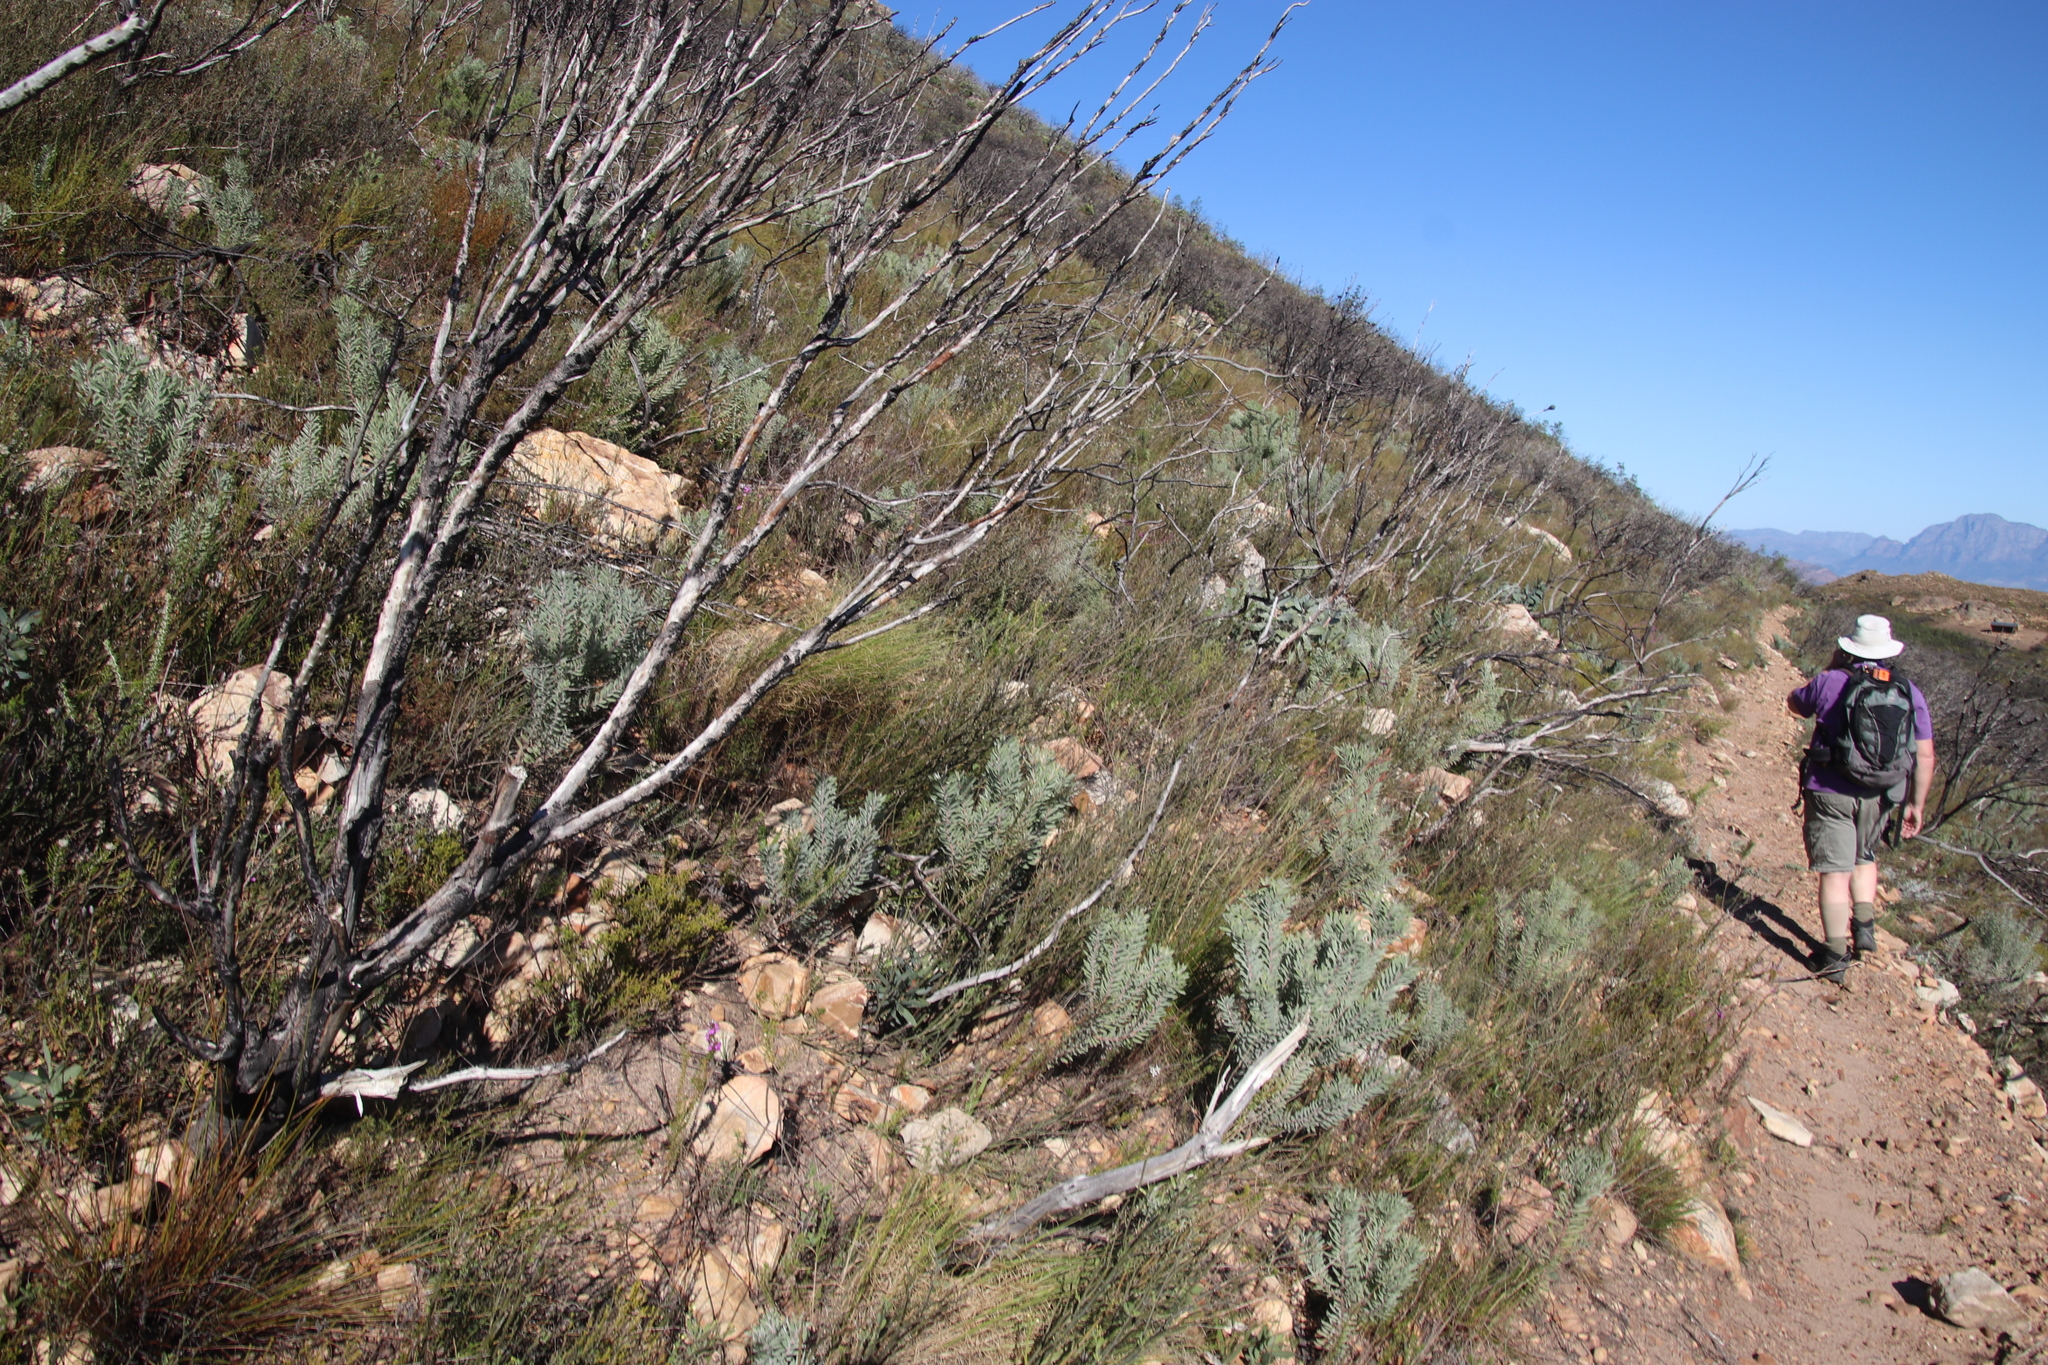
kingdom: Plantae
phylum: Tracheophyta
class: Magnoliopsida
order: Proteales
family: Proteaceae
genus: Leucadendron
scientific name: Leucadendron rubrum
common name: Spinning top
